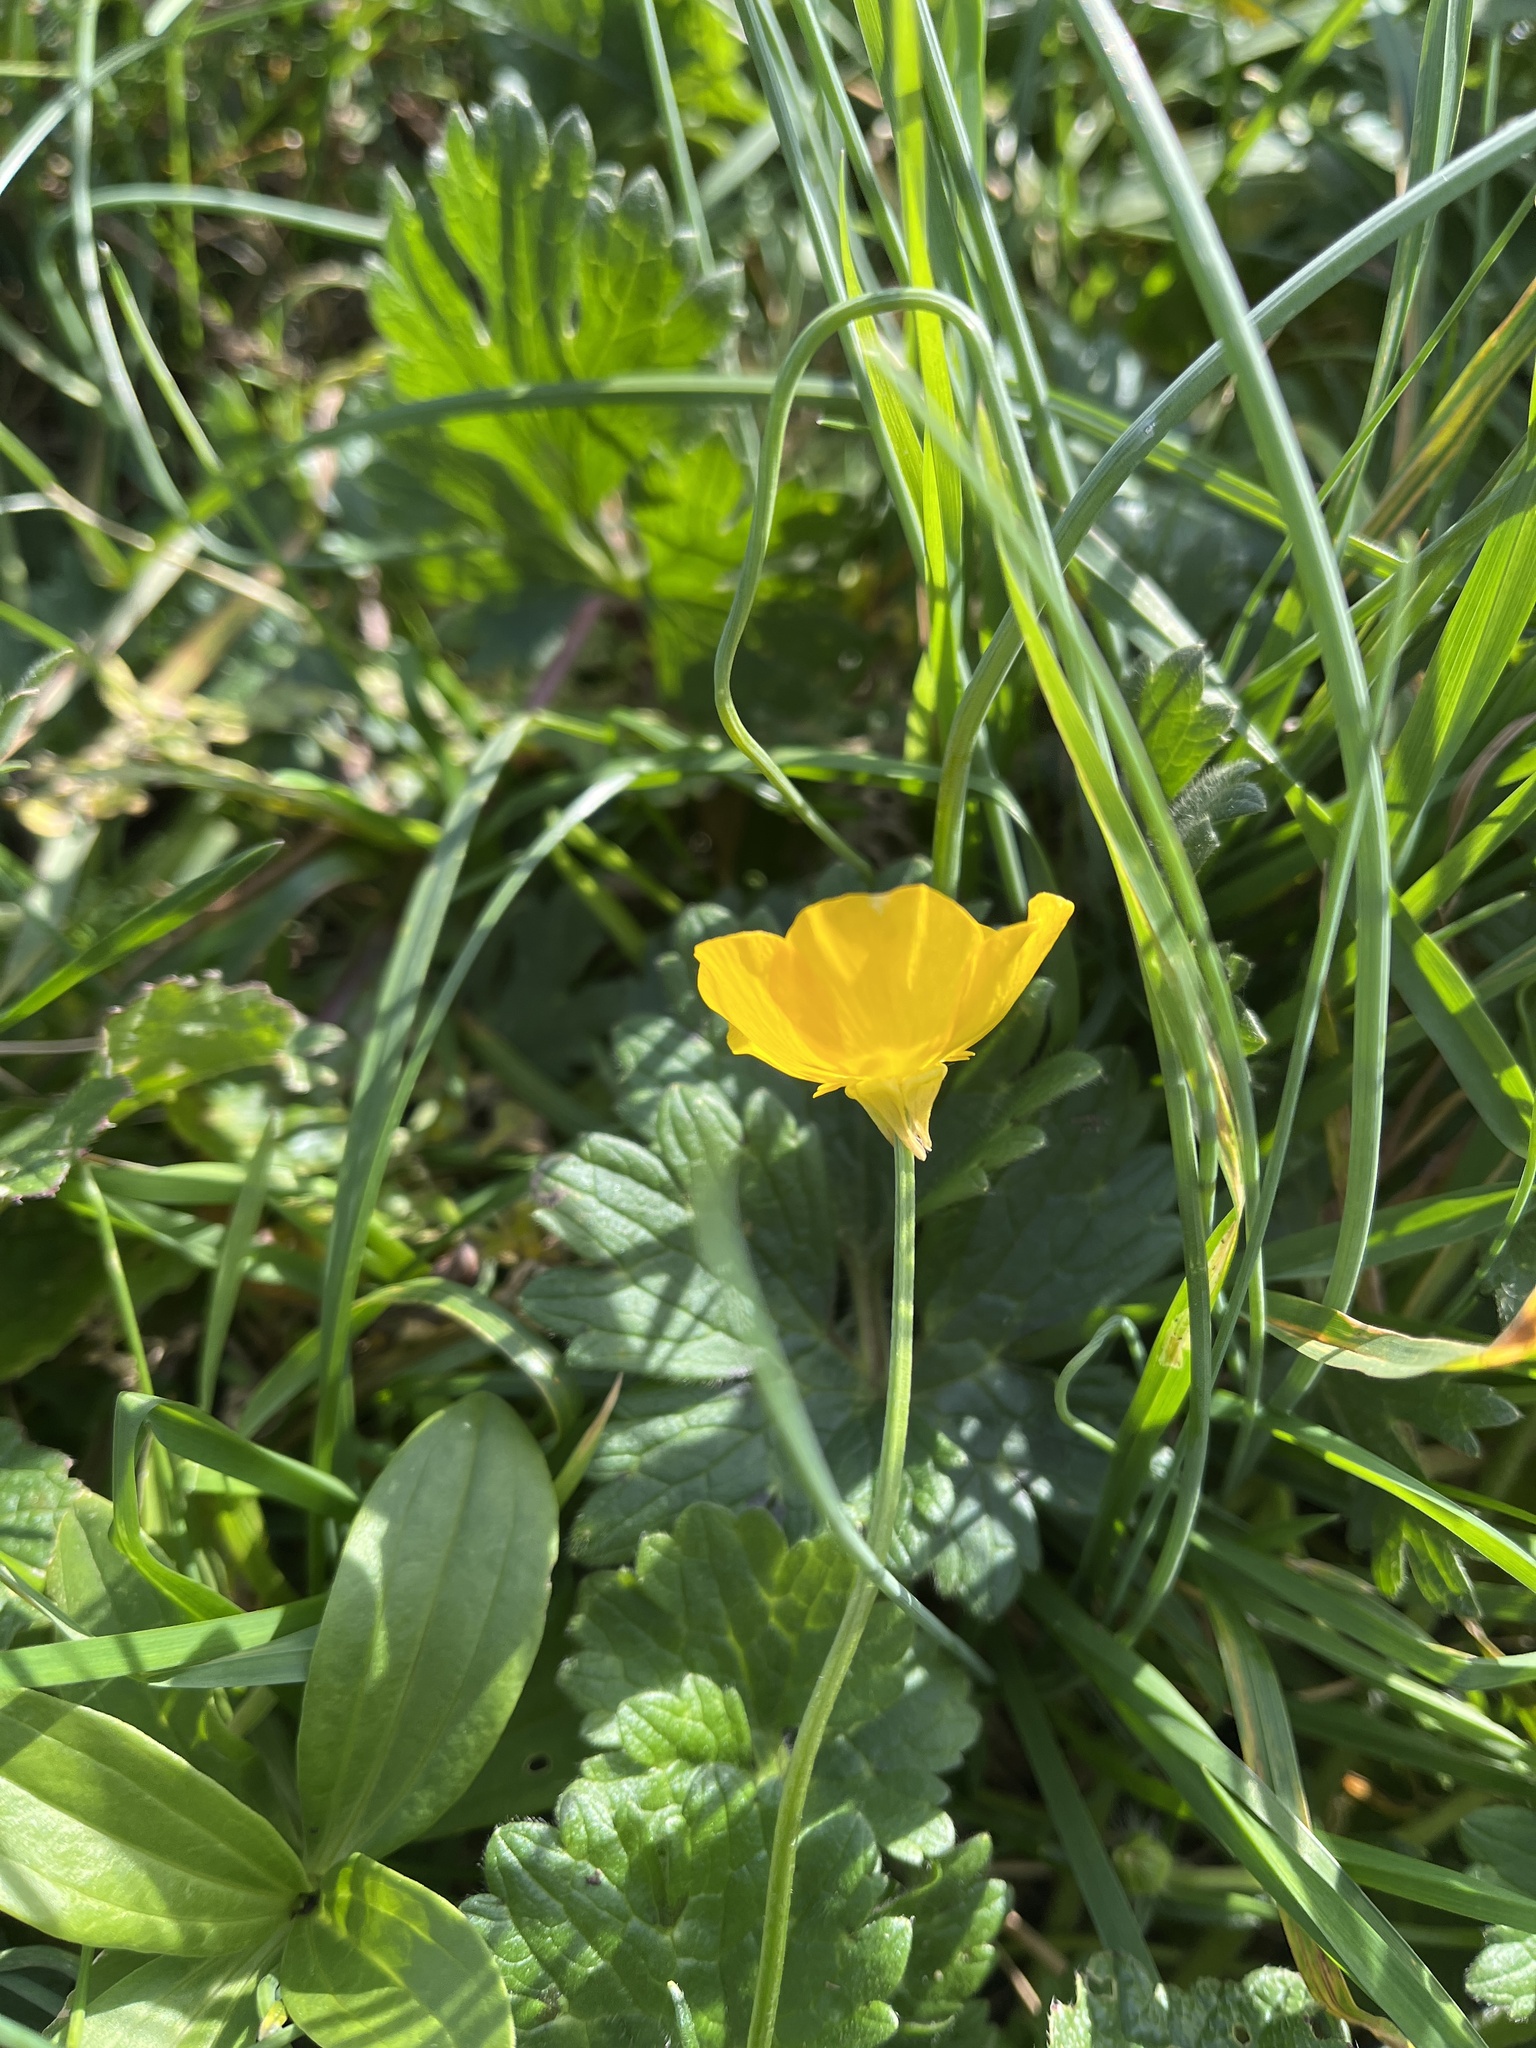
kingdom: Plantae
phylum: Tracheophyta
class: Magnoliopsida
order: Ranunculales
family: Ranunculaceae
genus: Ranunculus
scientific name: Ranunculus bulbosus
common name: Bulbous buttercup
